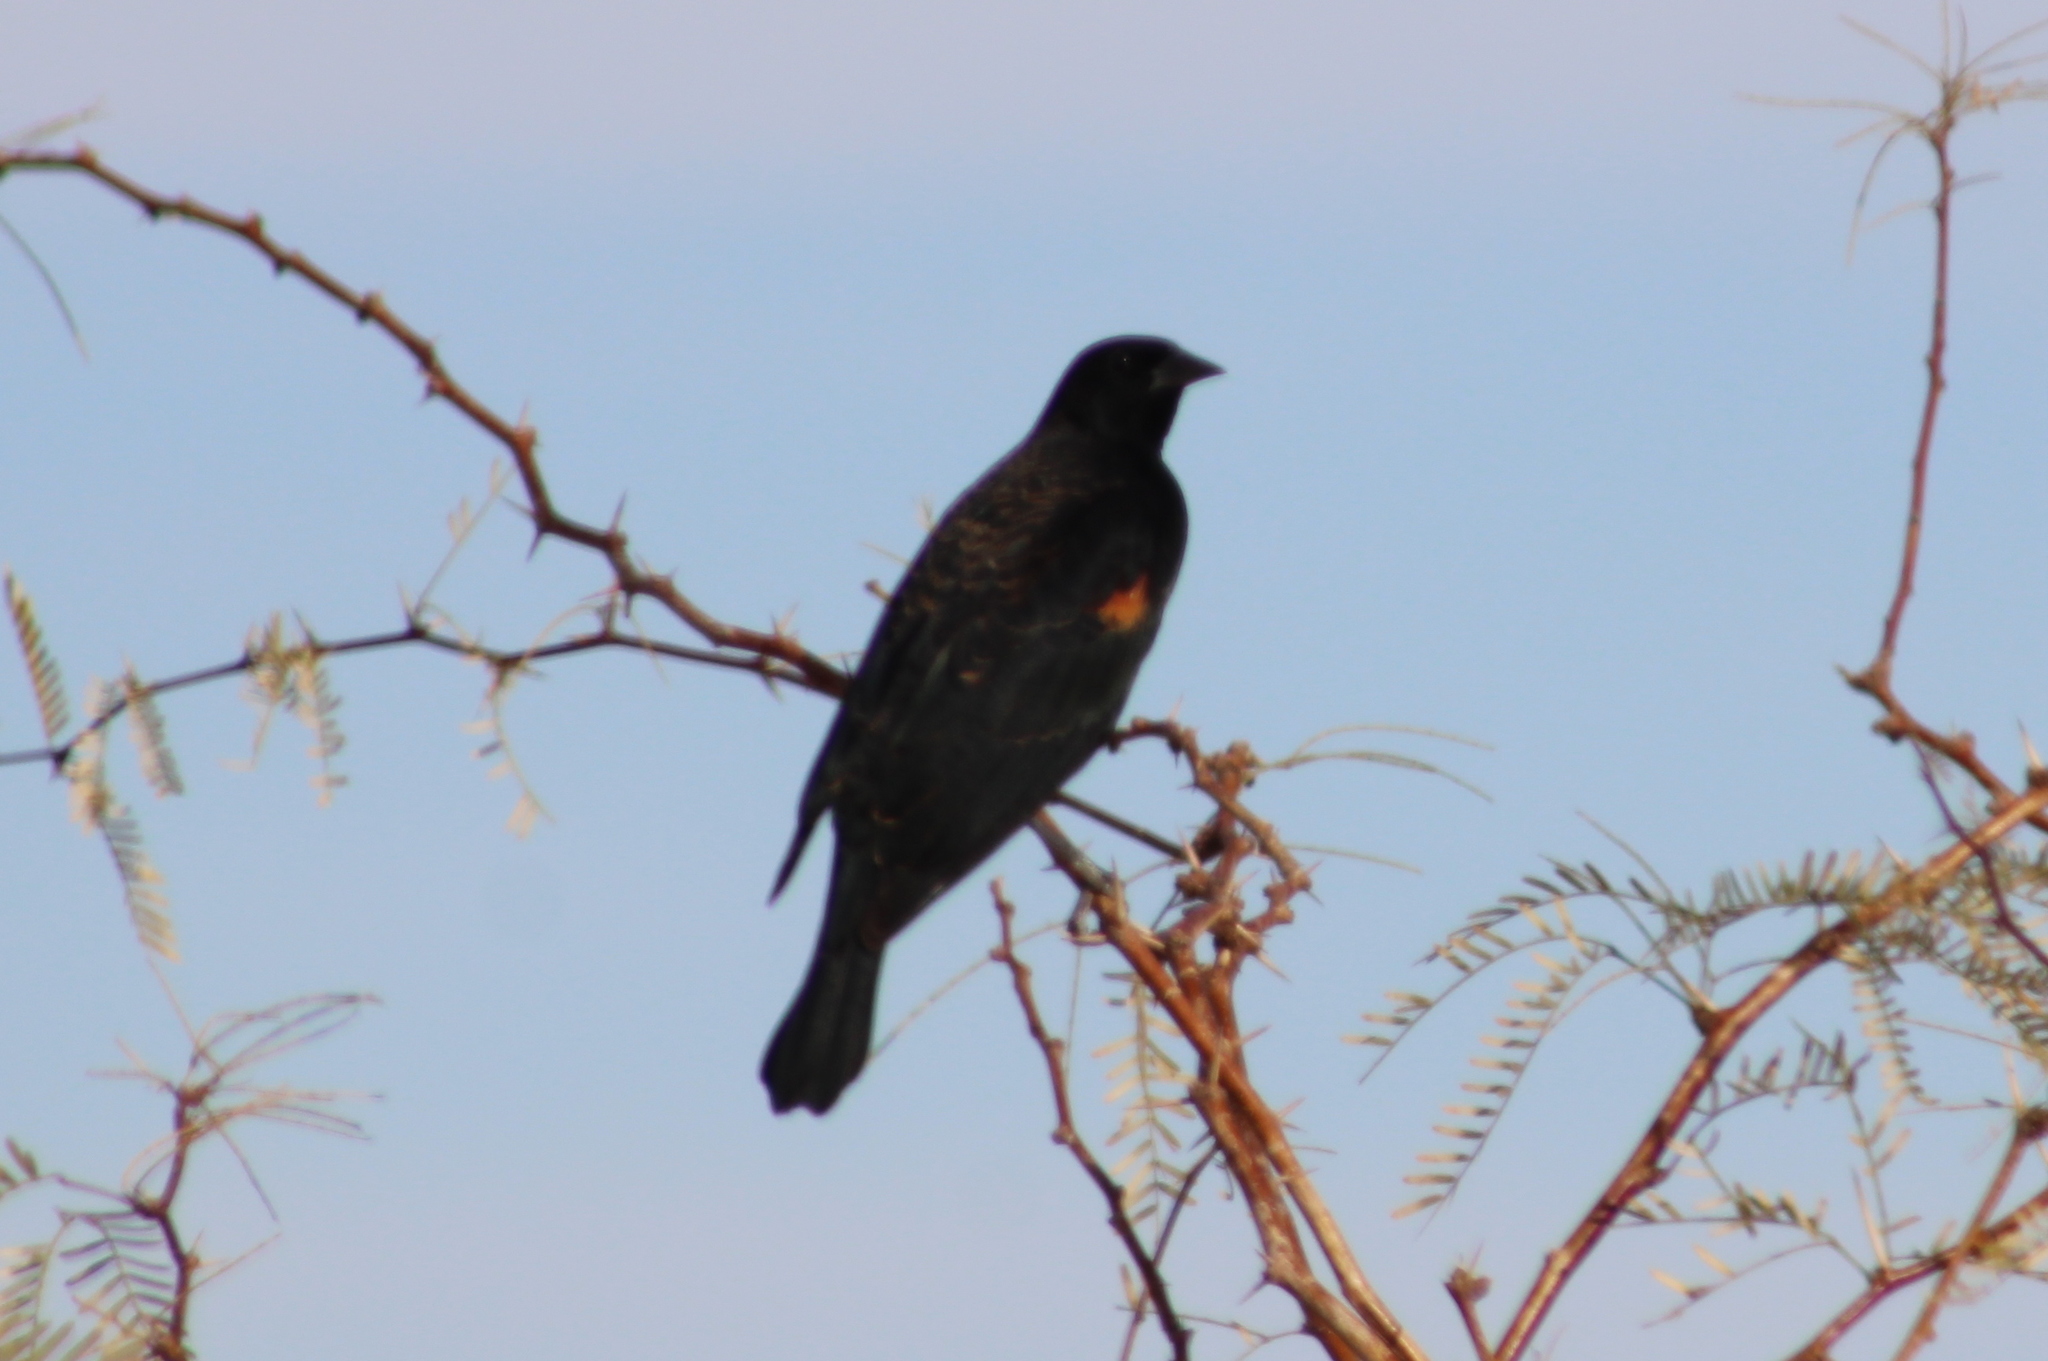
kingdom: Animalia
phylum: Chordata
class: Aves
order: Passeriformes
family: Icteridae
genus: Agelaius
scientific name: Agelaius phoeniceus
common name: Red-winged blackbird
